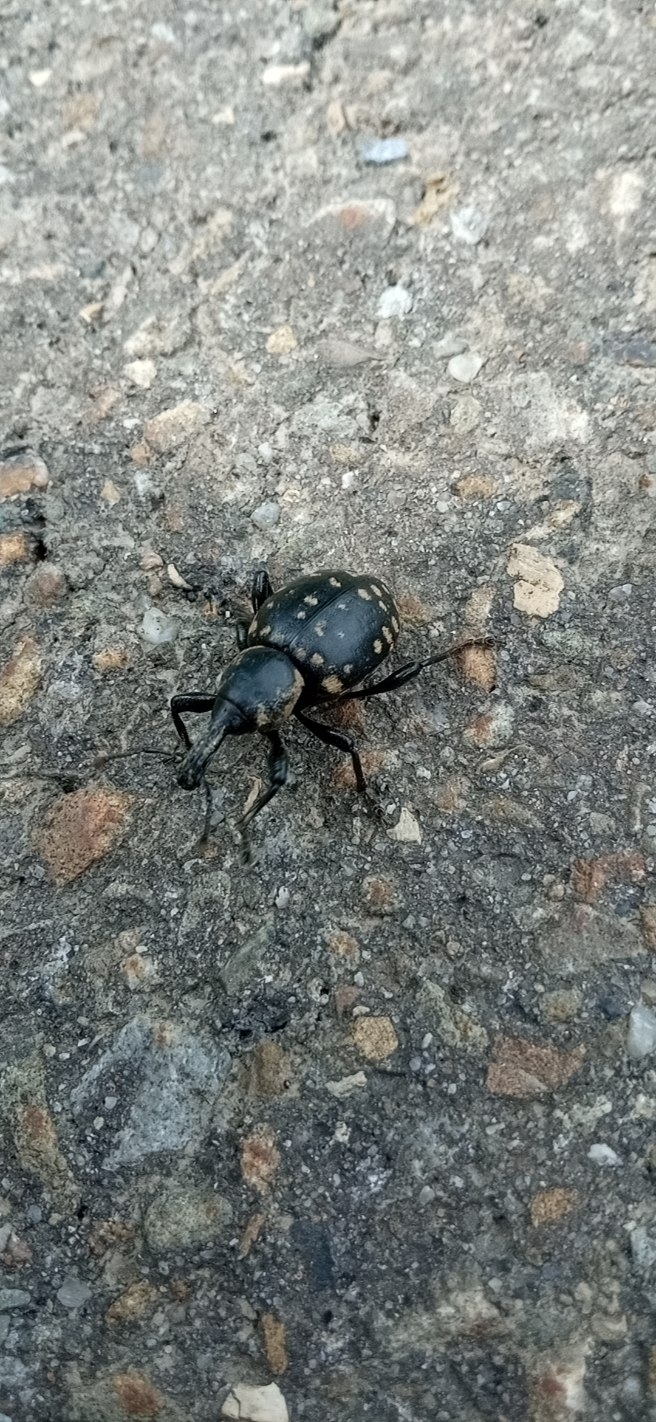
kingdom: Animalia
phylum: Arthropoda
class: Insecta
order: Coleoptera
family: Curculionidae
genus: Liparus
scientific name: Liparus glabrirostris
